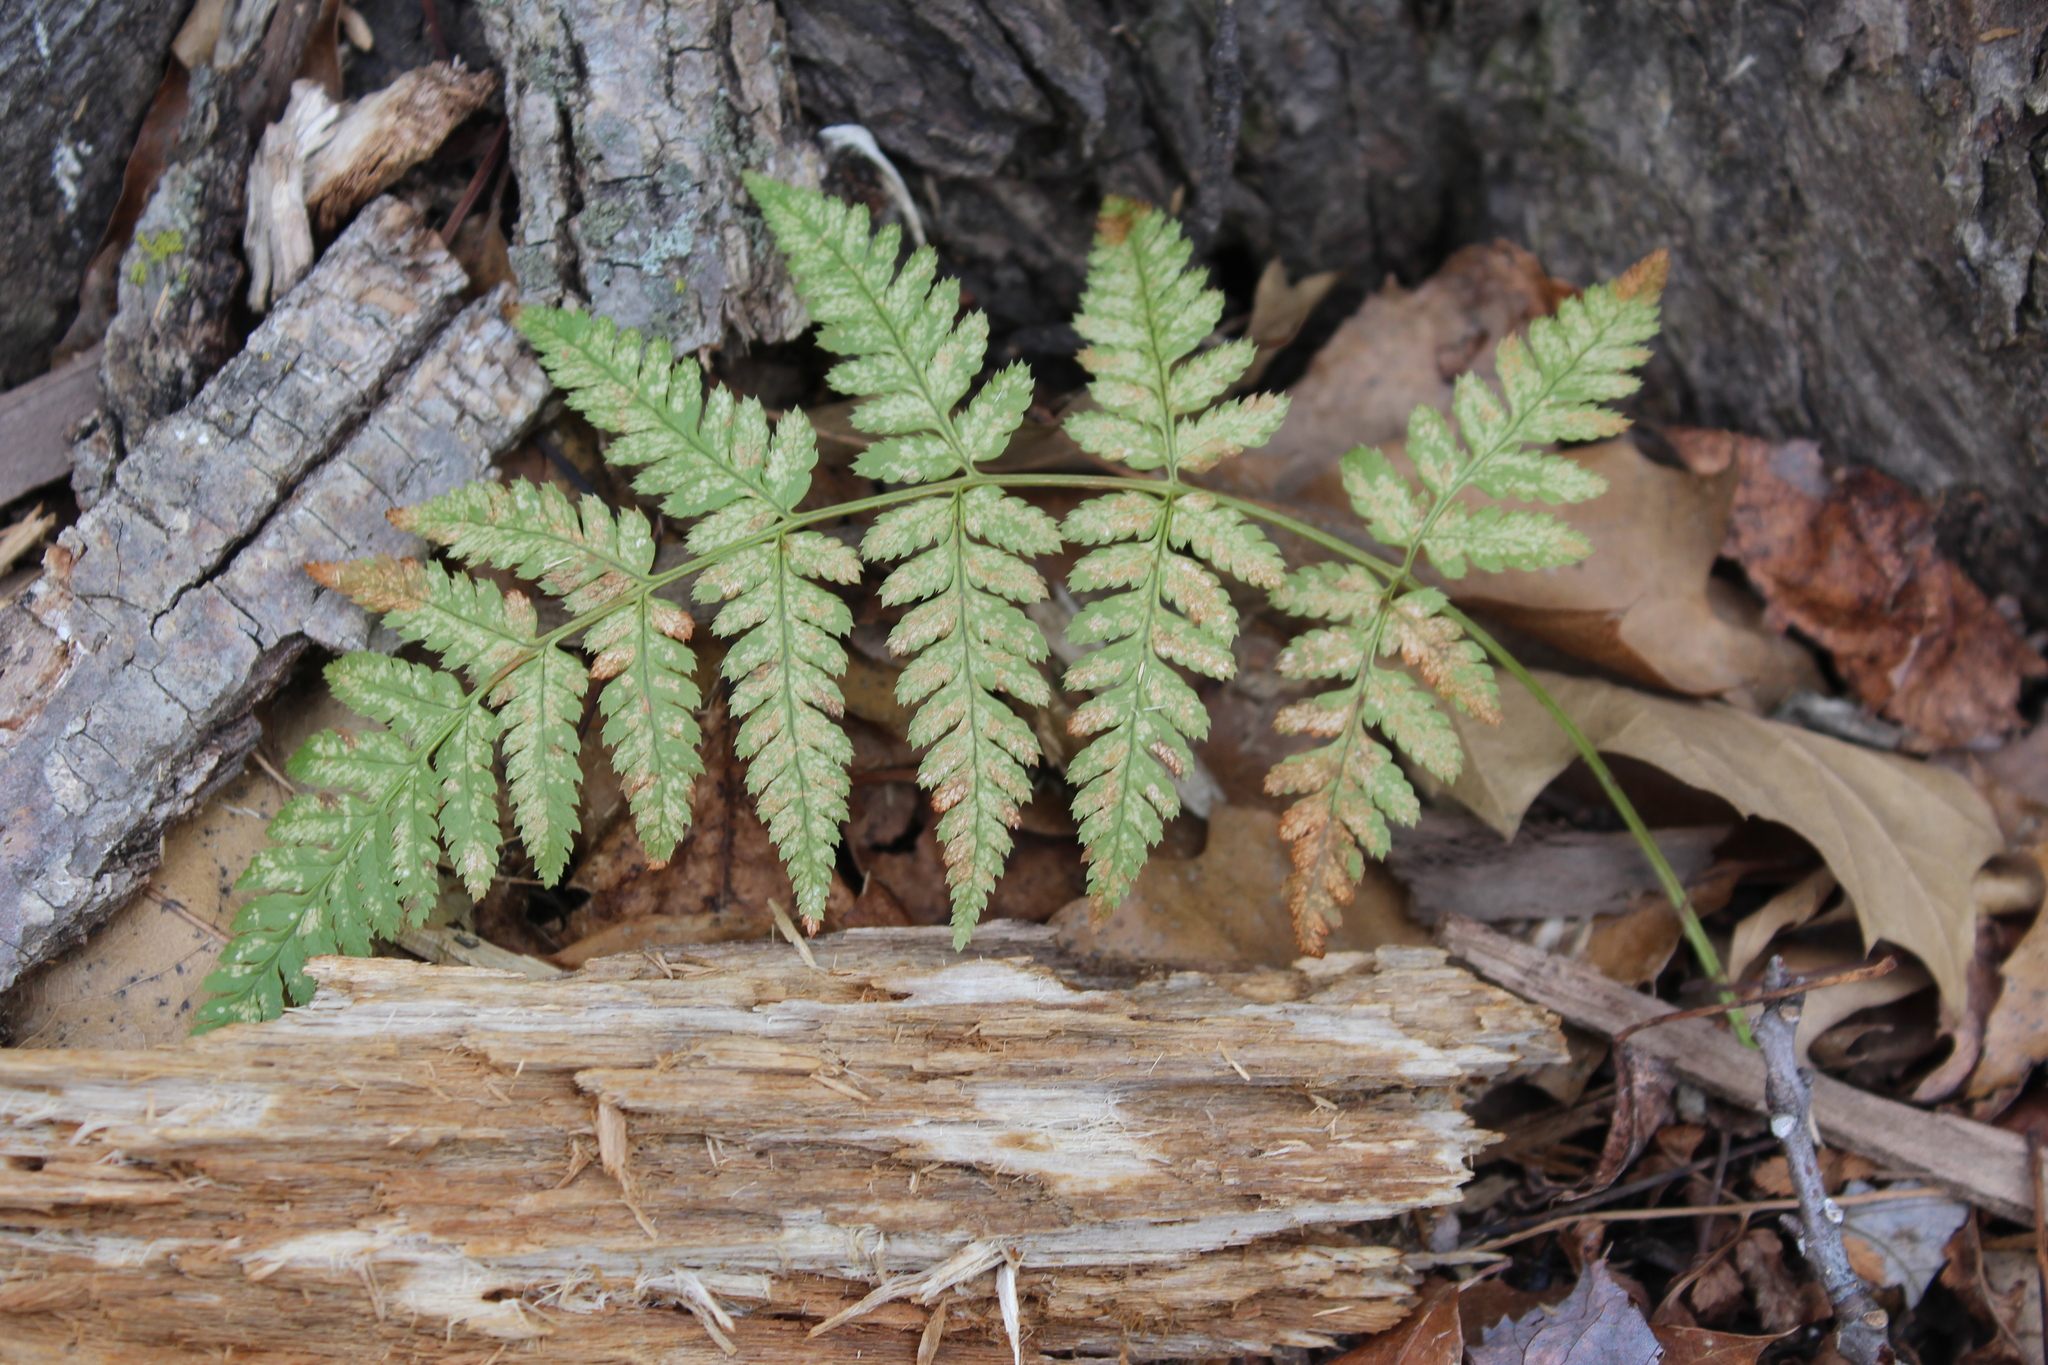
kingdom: Plantae
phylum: Tracheophyta
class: Polypodiopsida
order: Polypodiales
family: Dryopteridaceae
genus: Dryopteris
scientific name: Dryopteris carthusiana
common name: Narrow buckler-fern
